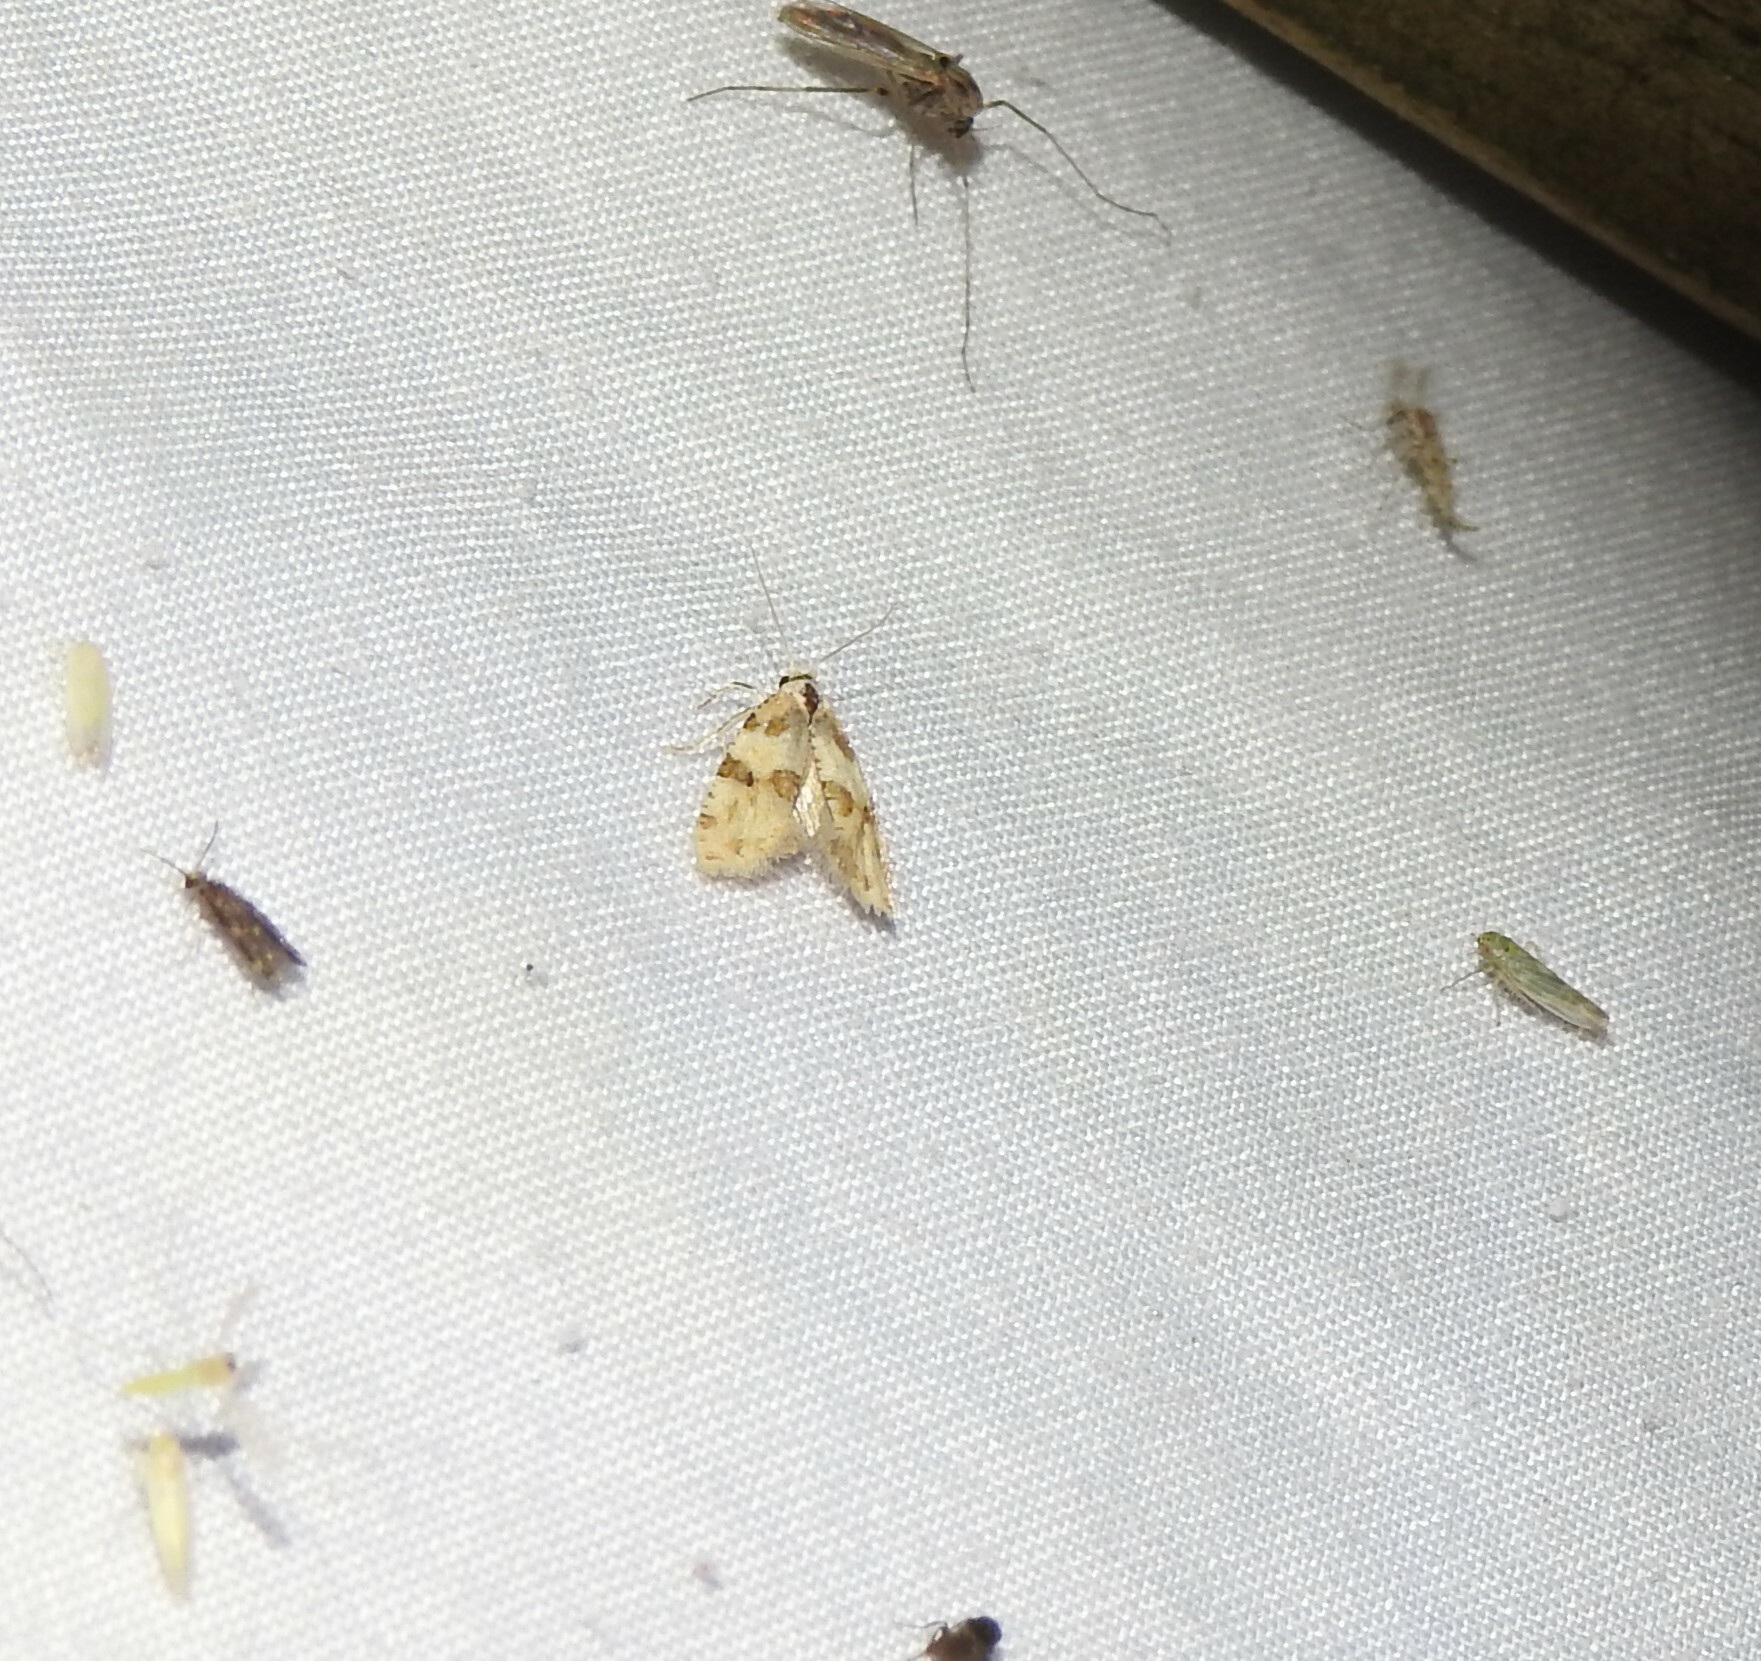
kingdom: Animalia
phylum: Arthropoda
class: Insecta
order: Lepidoptera
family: Tortricidae
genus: Aethes
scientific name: Aethes argentilimitana
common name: Silver-bordered aethes
